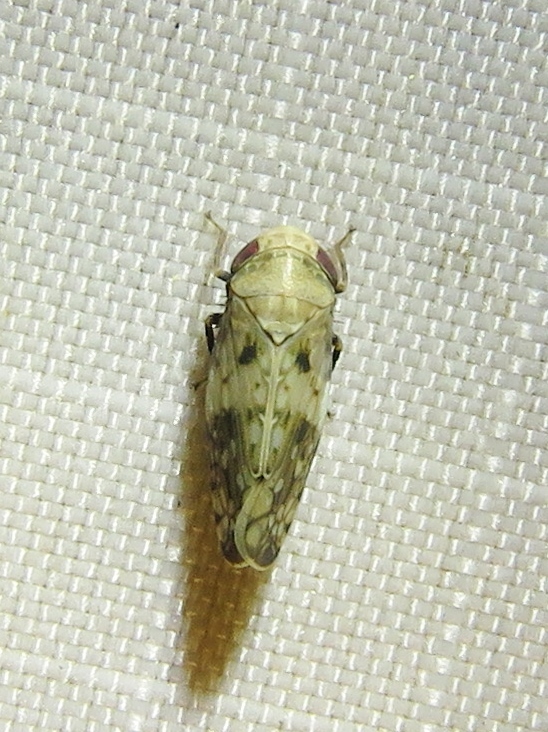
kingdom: Animalia
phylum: Arthropoda
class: Insecta
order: Hemiptera
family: Cicadellidae
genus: Menosoma
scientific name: Menosoma cinctum
